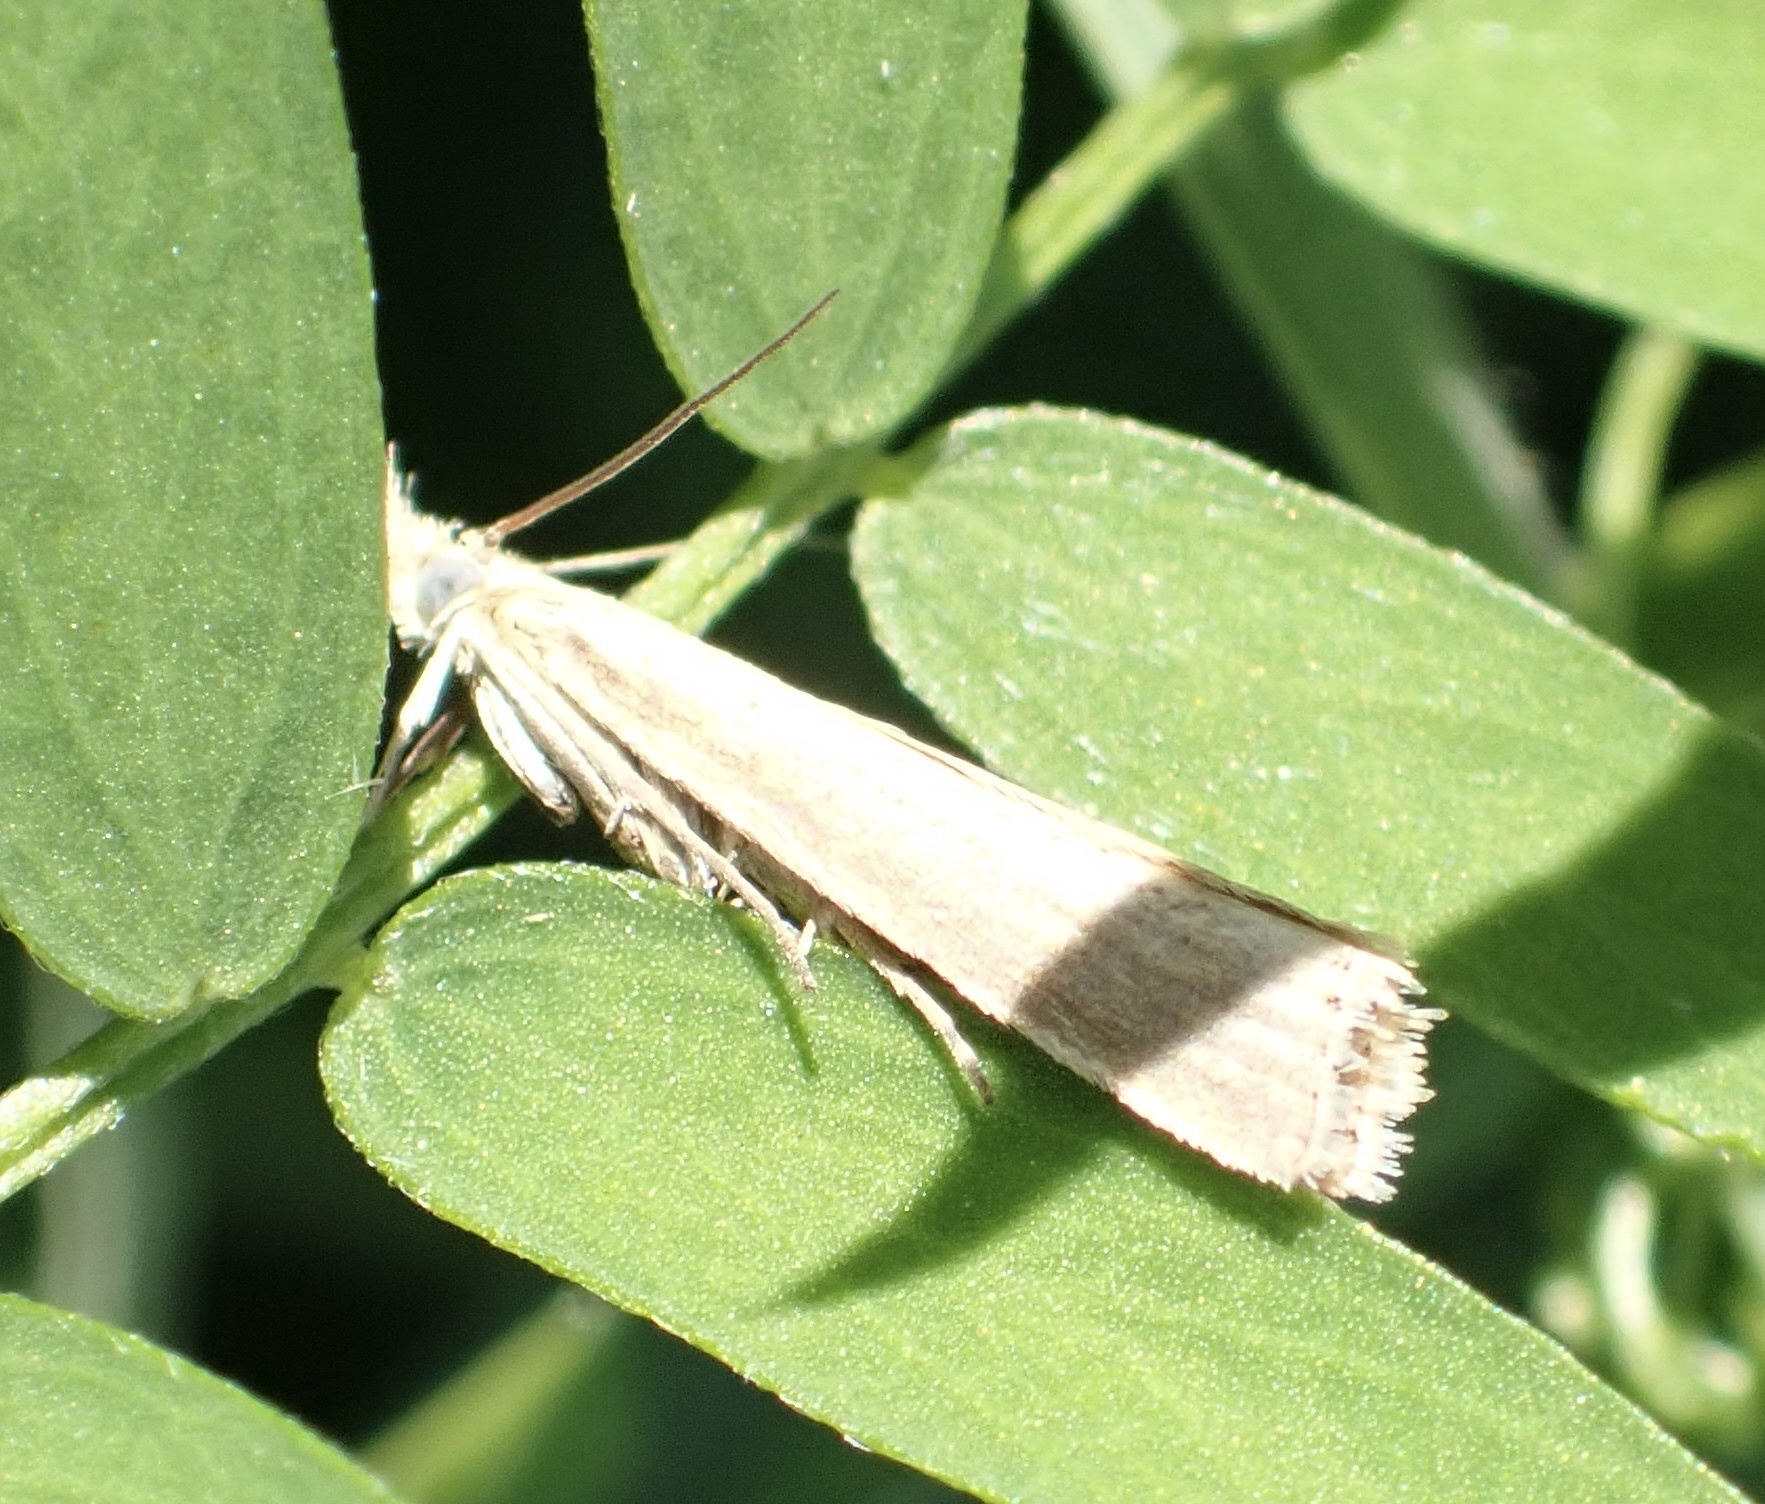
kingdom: Animalia
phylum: Arthropoda
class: Insecta
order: Lepidoptera
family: Crambidae
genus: Agriphila
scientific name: Agriphila straminella
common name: Straw grass-veneer
